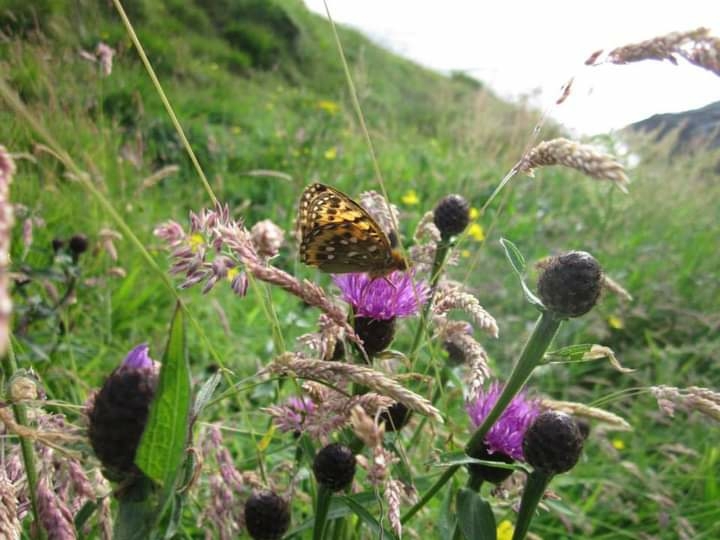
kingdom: Animalia
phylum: Arthropoda
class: Insecta
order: Lepidoptera
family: Nymphalidae
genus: Speyeria
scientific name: Speyeria aglaja
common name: Dark green fritillary
